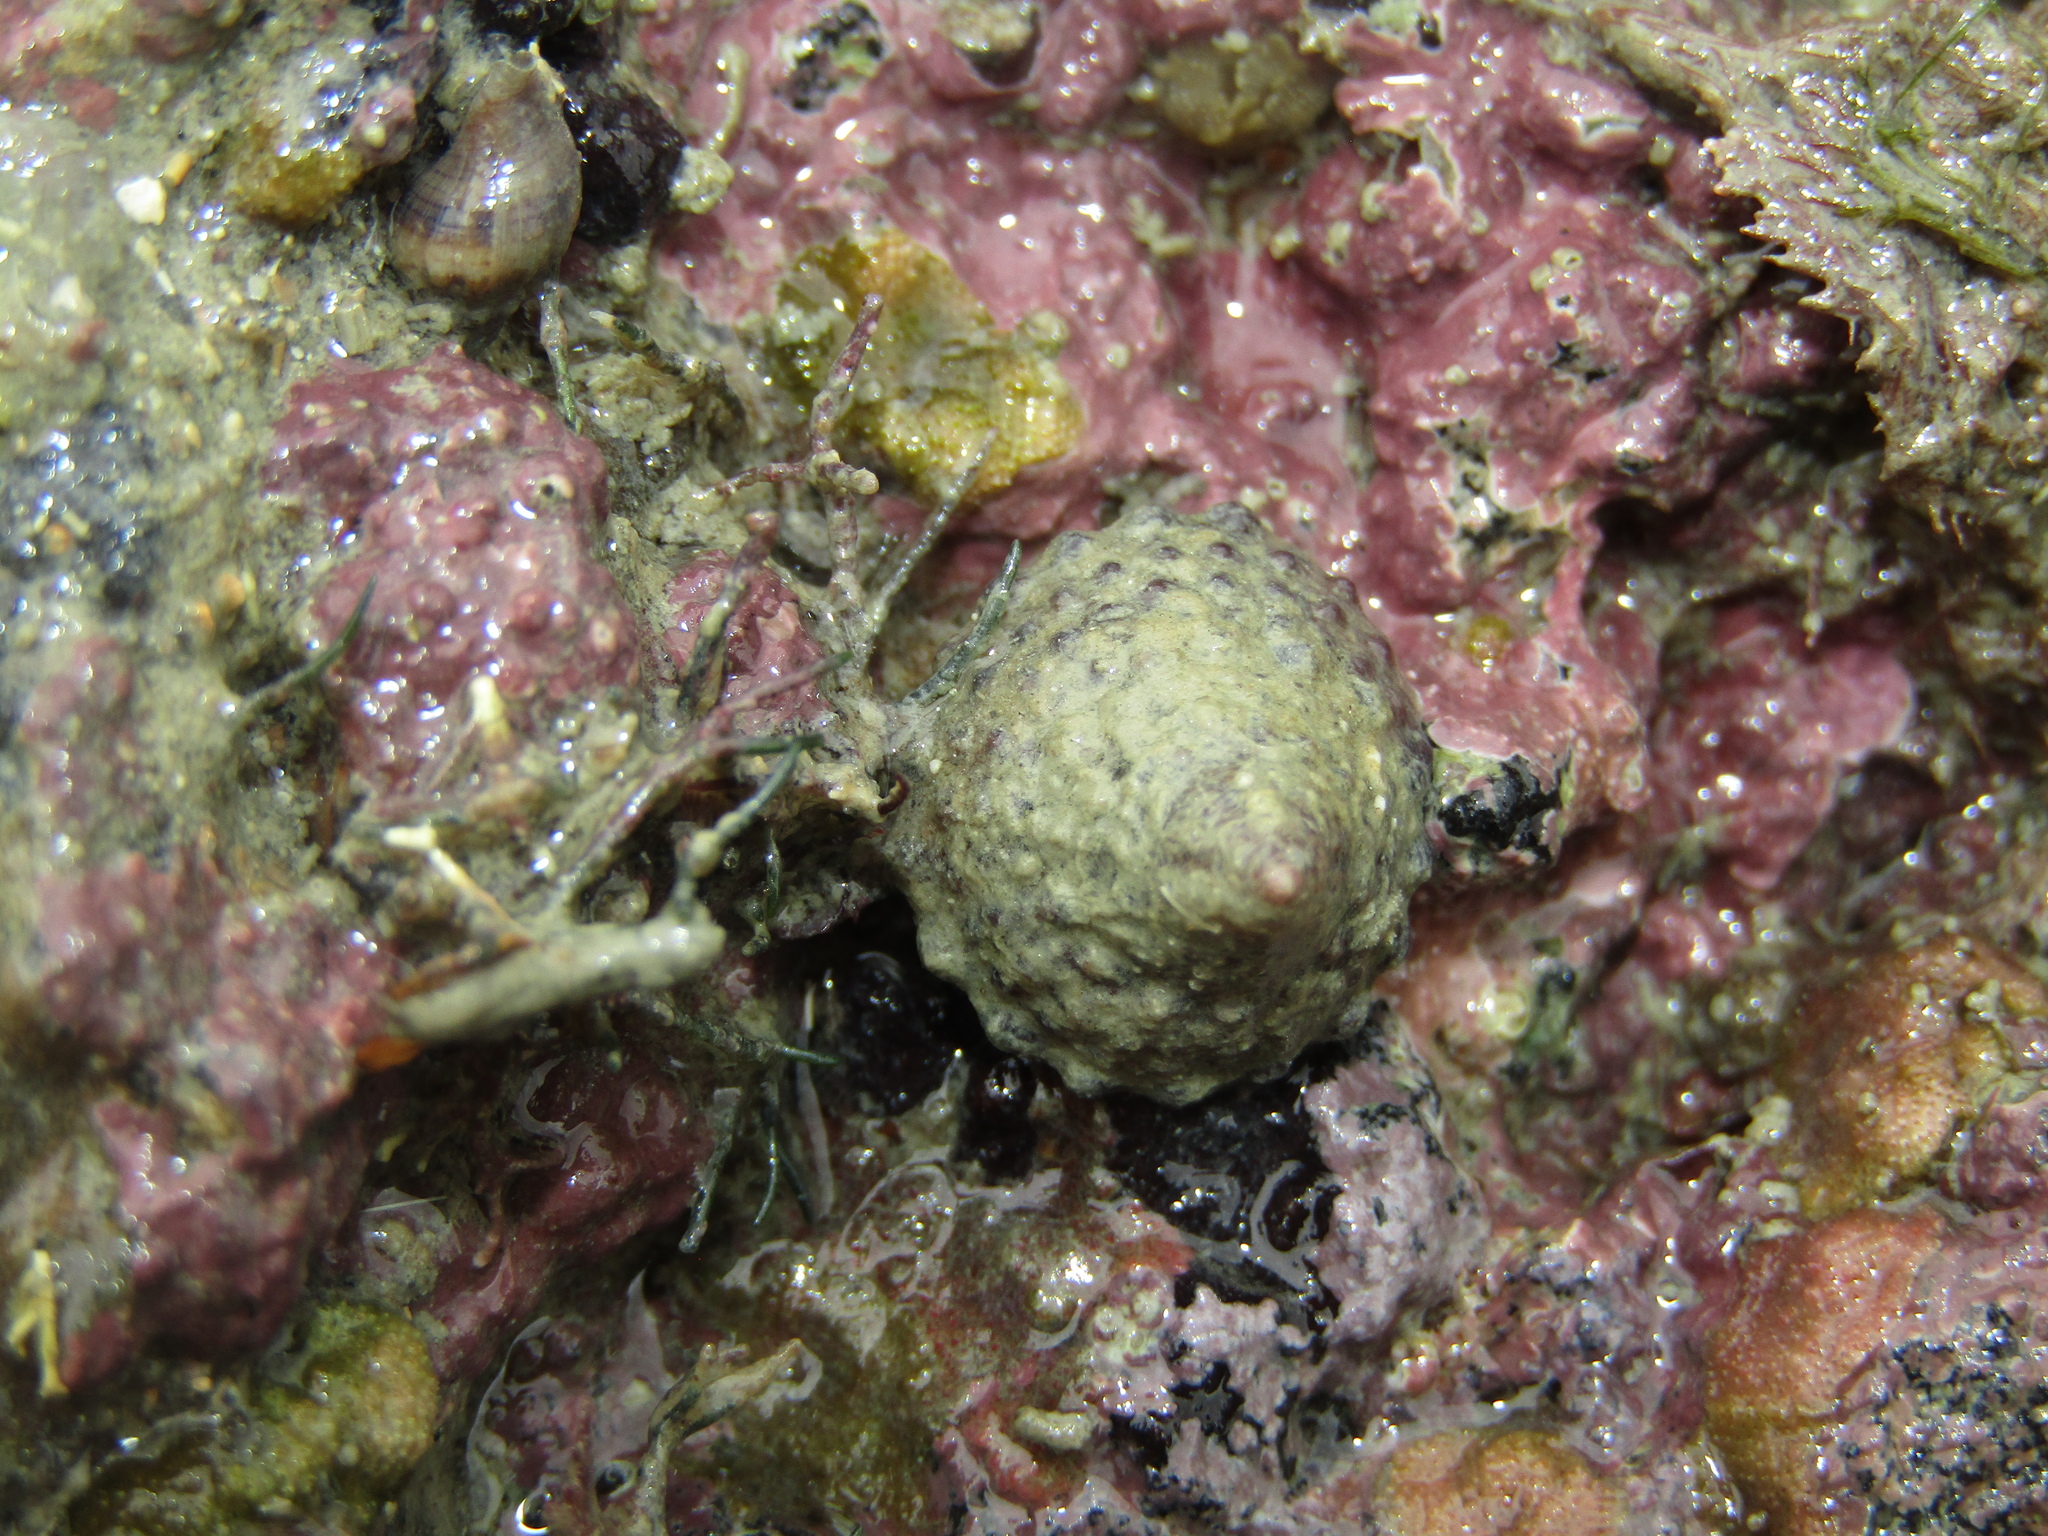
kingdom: Animalia
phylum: Mollusca
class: Gastropoda
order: Trochida
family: Trochidae
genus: Coelotrochus
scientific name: Coelotrochus viridis
